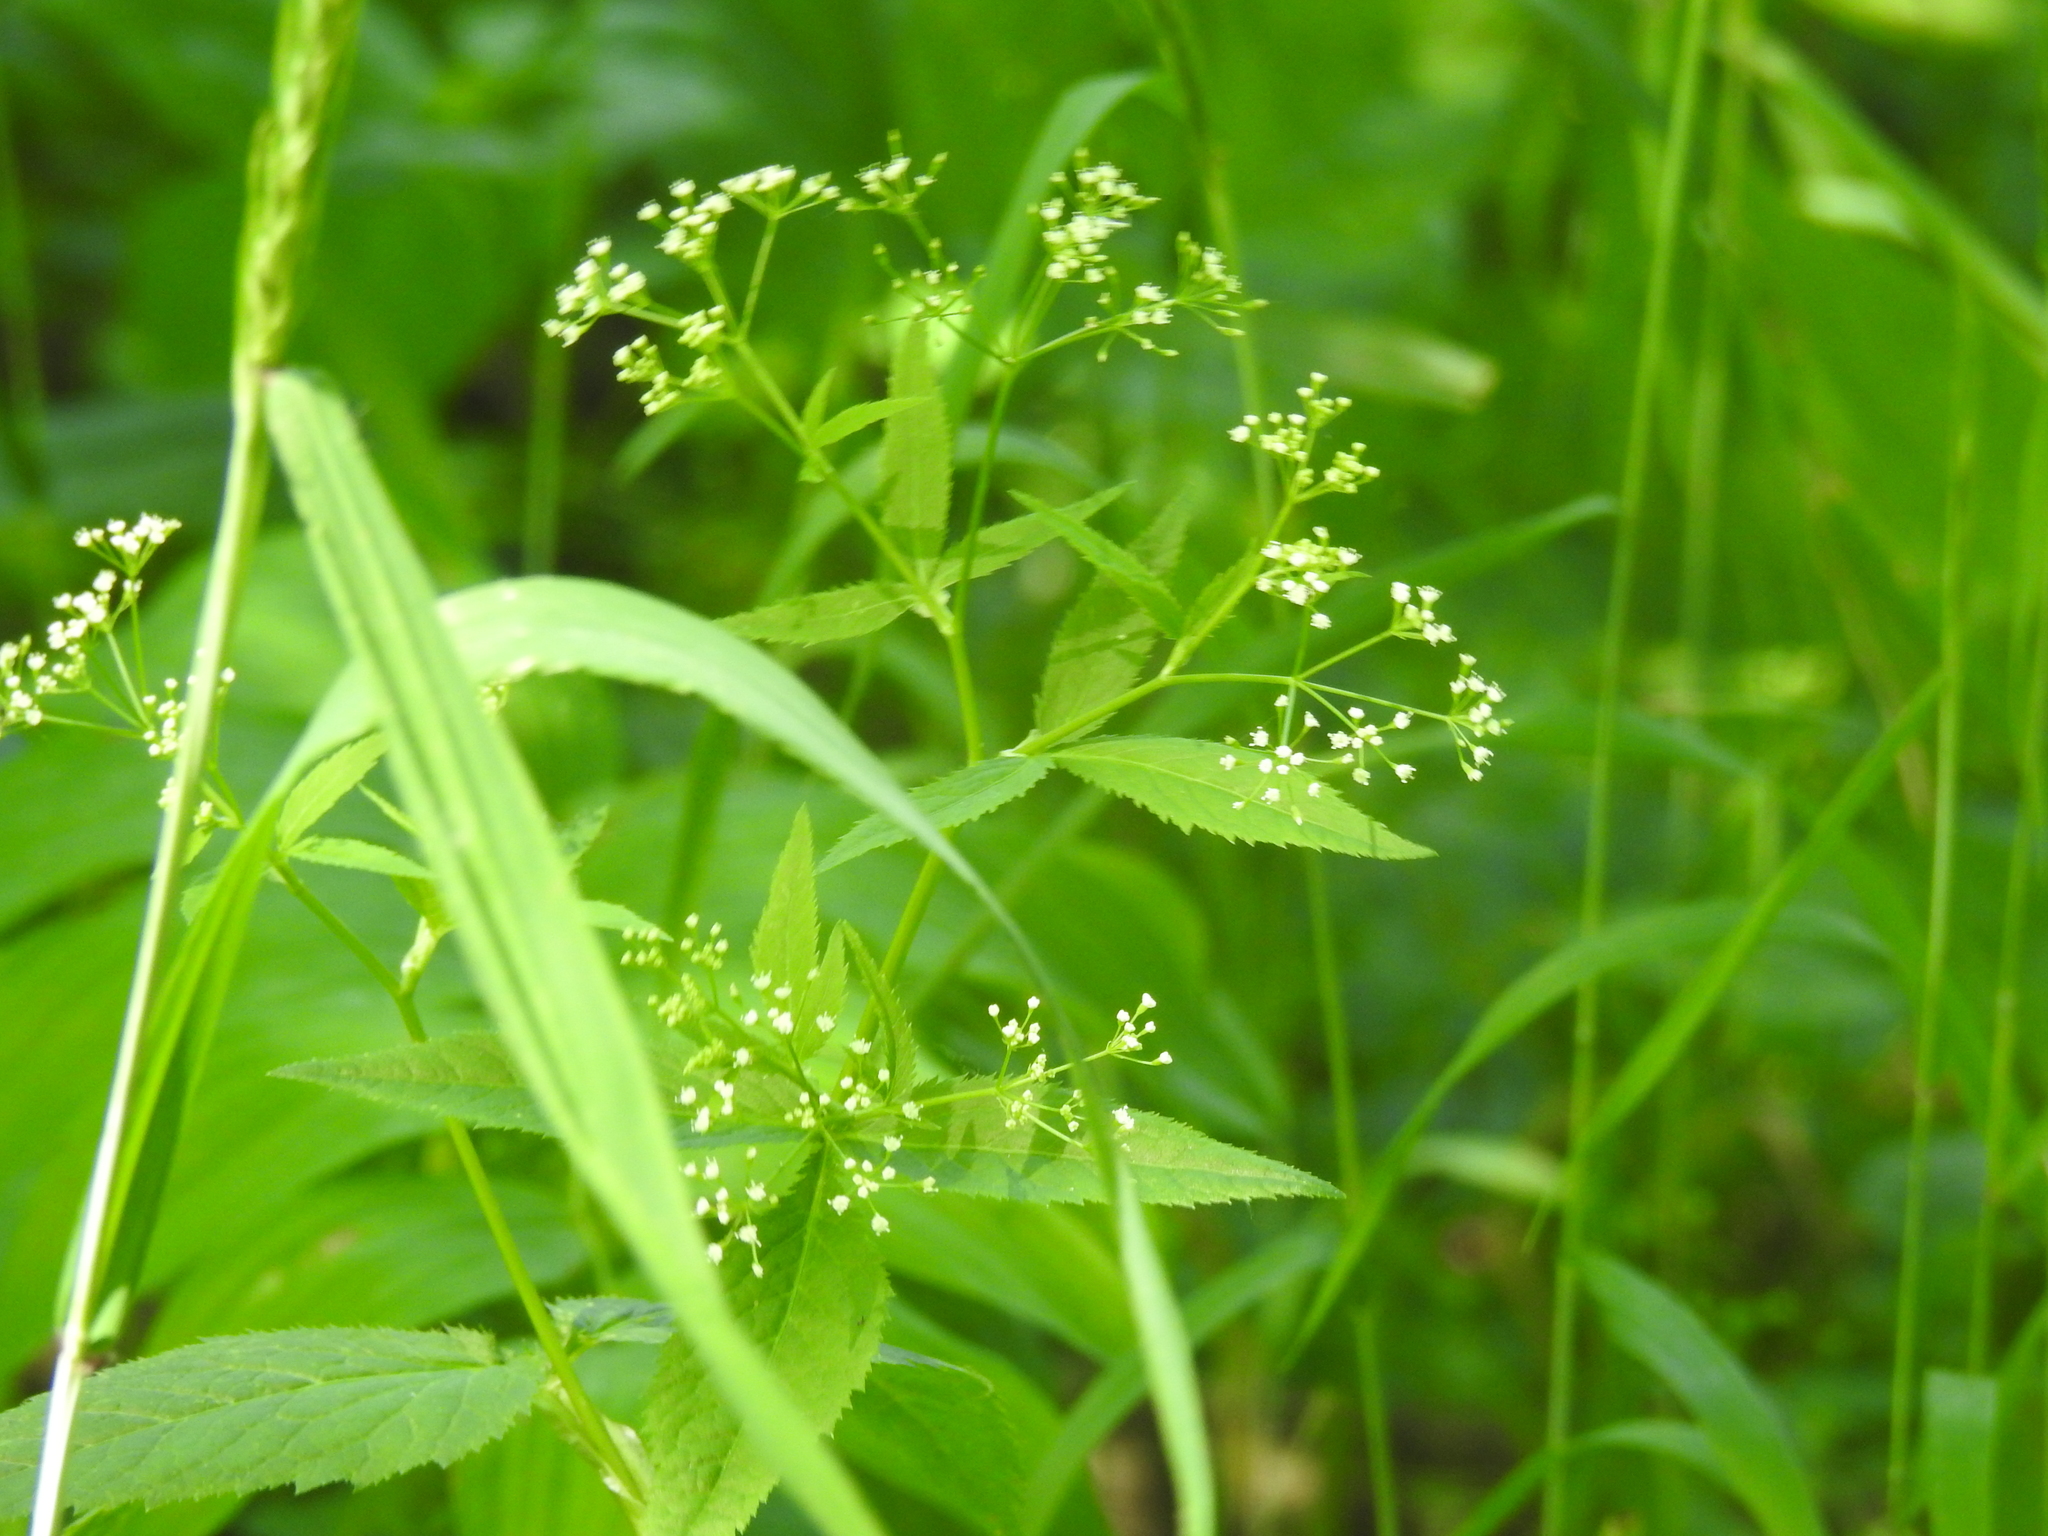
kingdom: Plantae
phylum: Tracheophyta
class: Magnoliopsida
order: Apiales
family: Apiaceae
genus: Cryptotaenia
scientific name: Cryptotaenia canadensis
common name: Honewort
